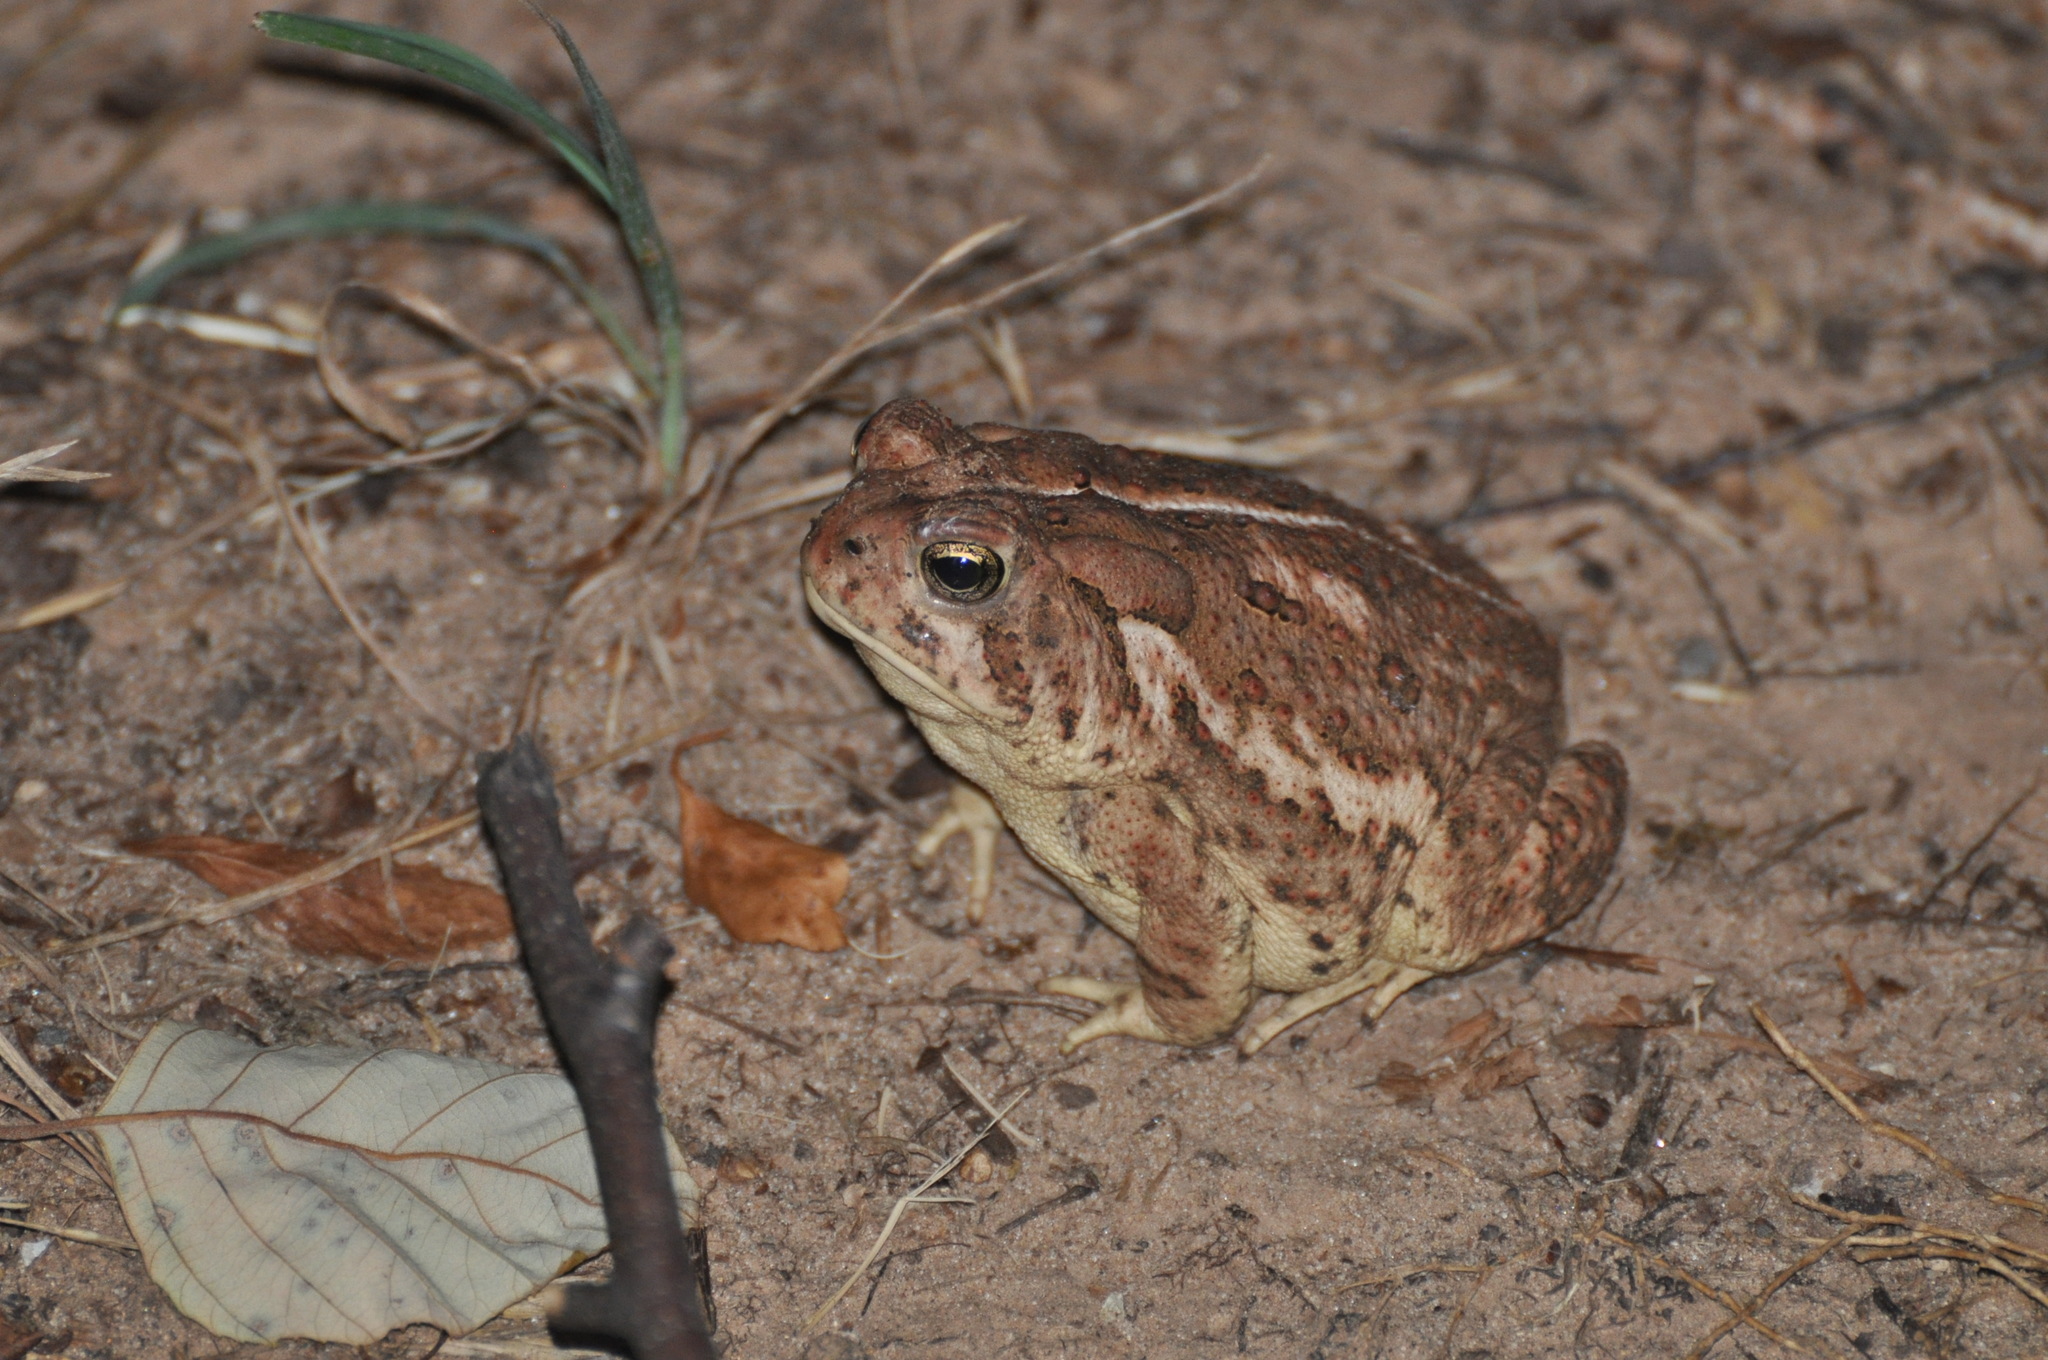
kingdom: Animalia
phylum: Chordata
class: Amphibia
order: Anura
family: Bufonidae
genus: Anaxyrus
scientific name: Anaxyrus americanus
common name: American toad
